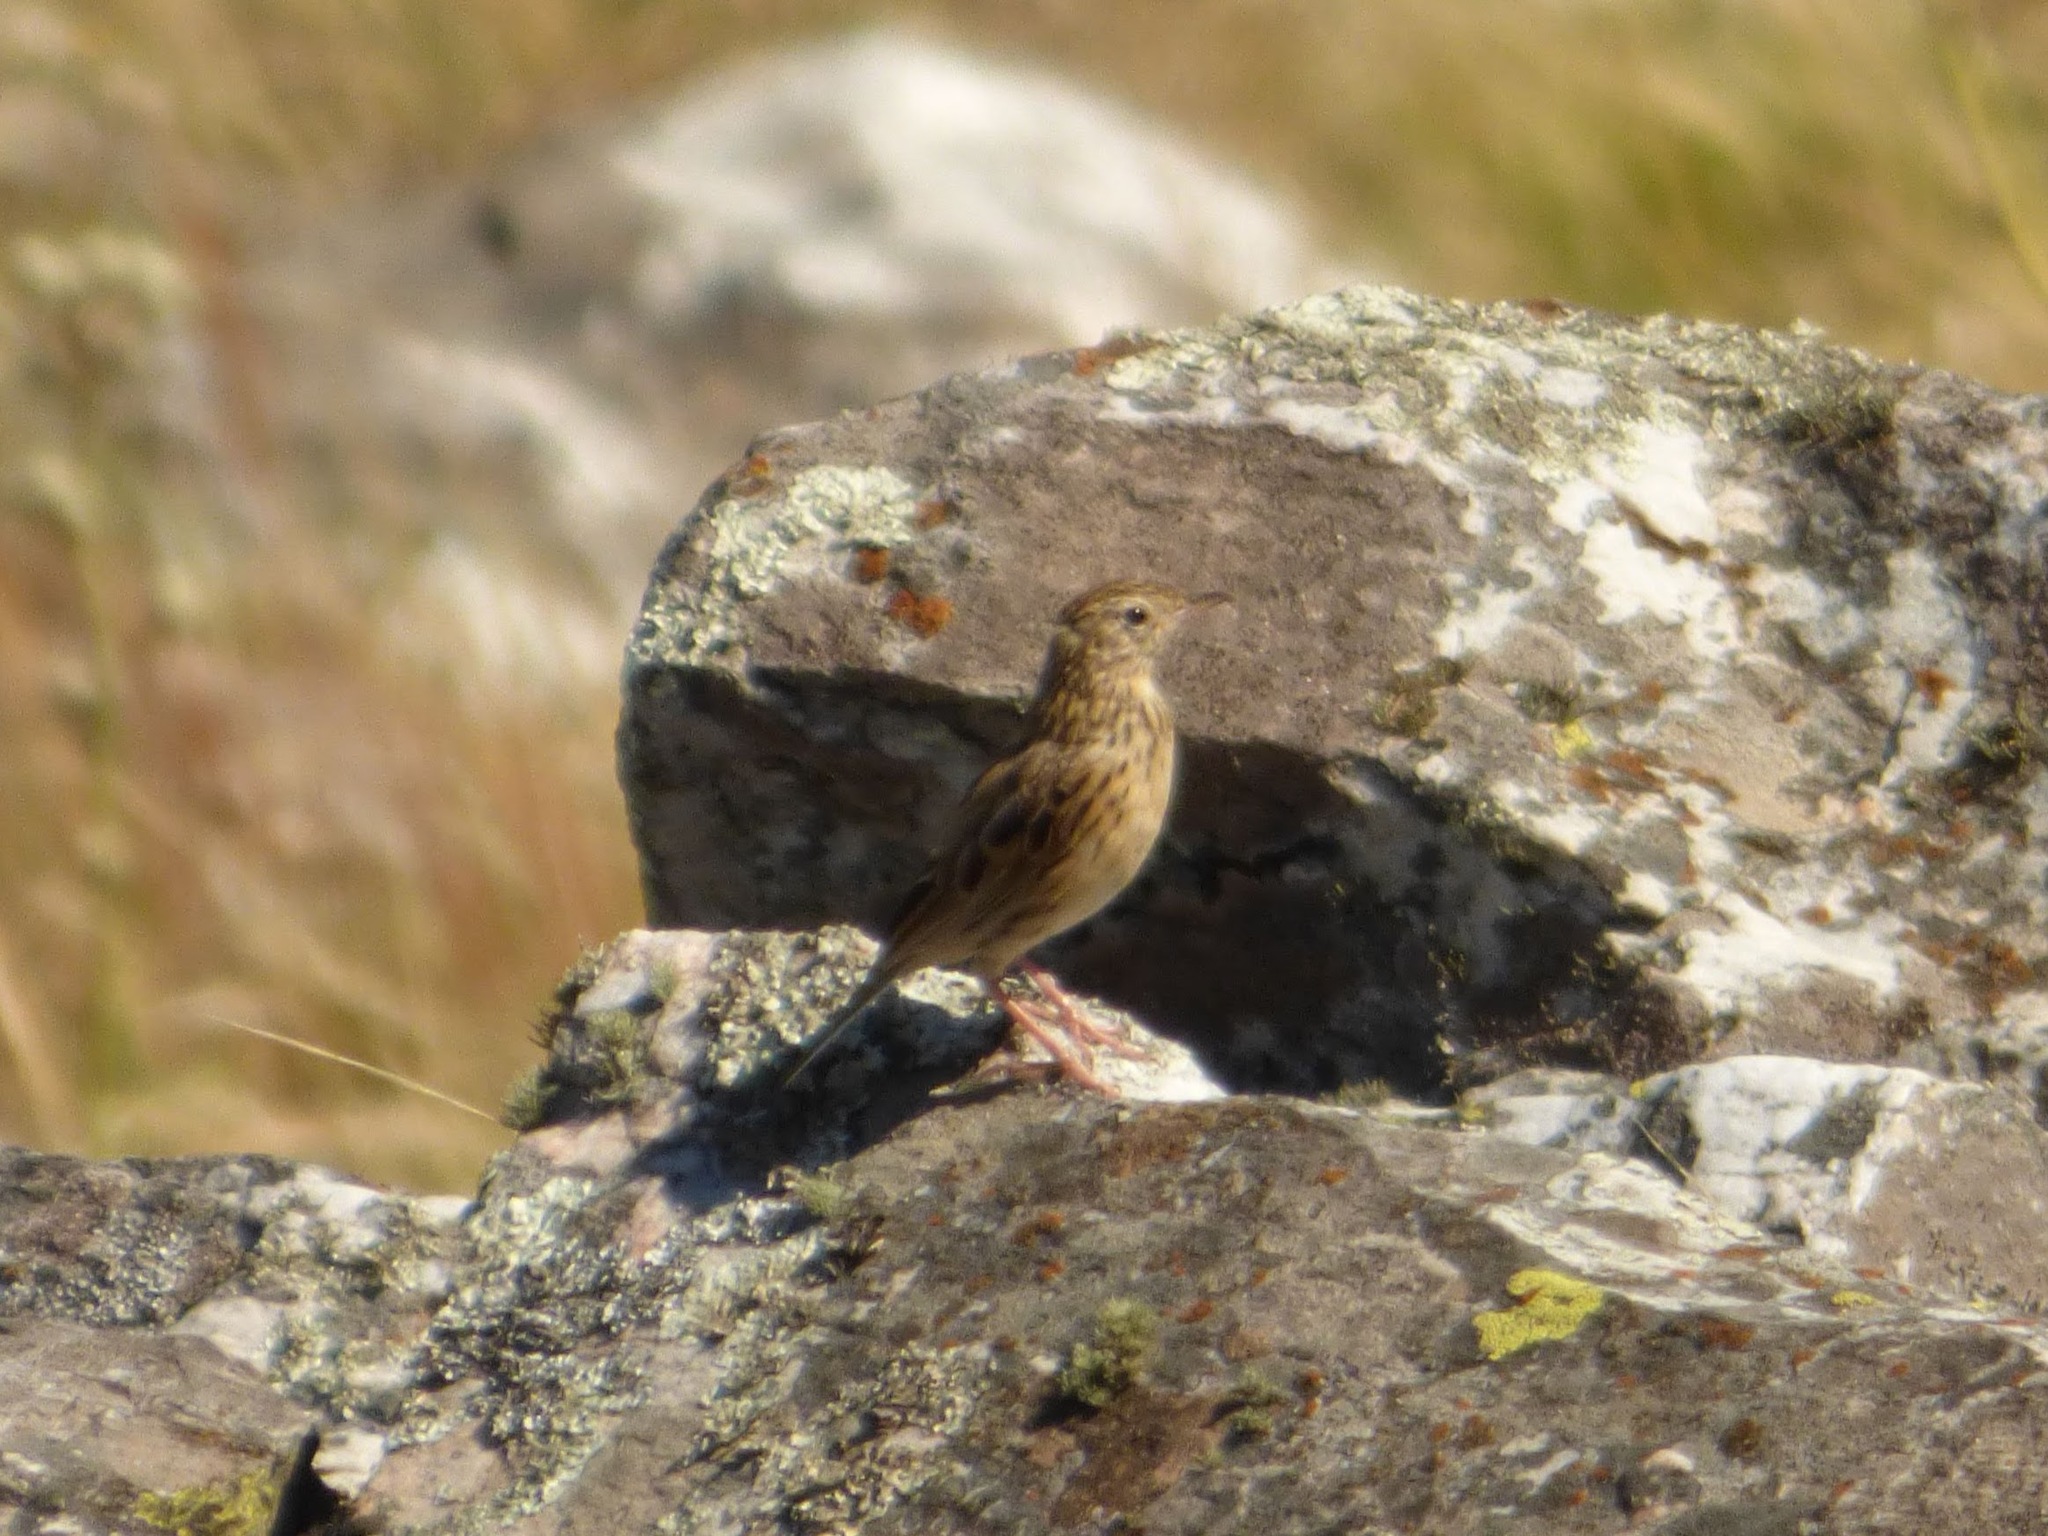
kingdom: Animalia
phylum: Chordata
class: Aves
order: Passeriformes
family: Motacillidae
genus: Anthus
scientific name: Anthus hellmayri
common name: Hellmayr's pipit
